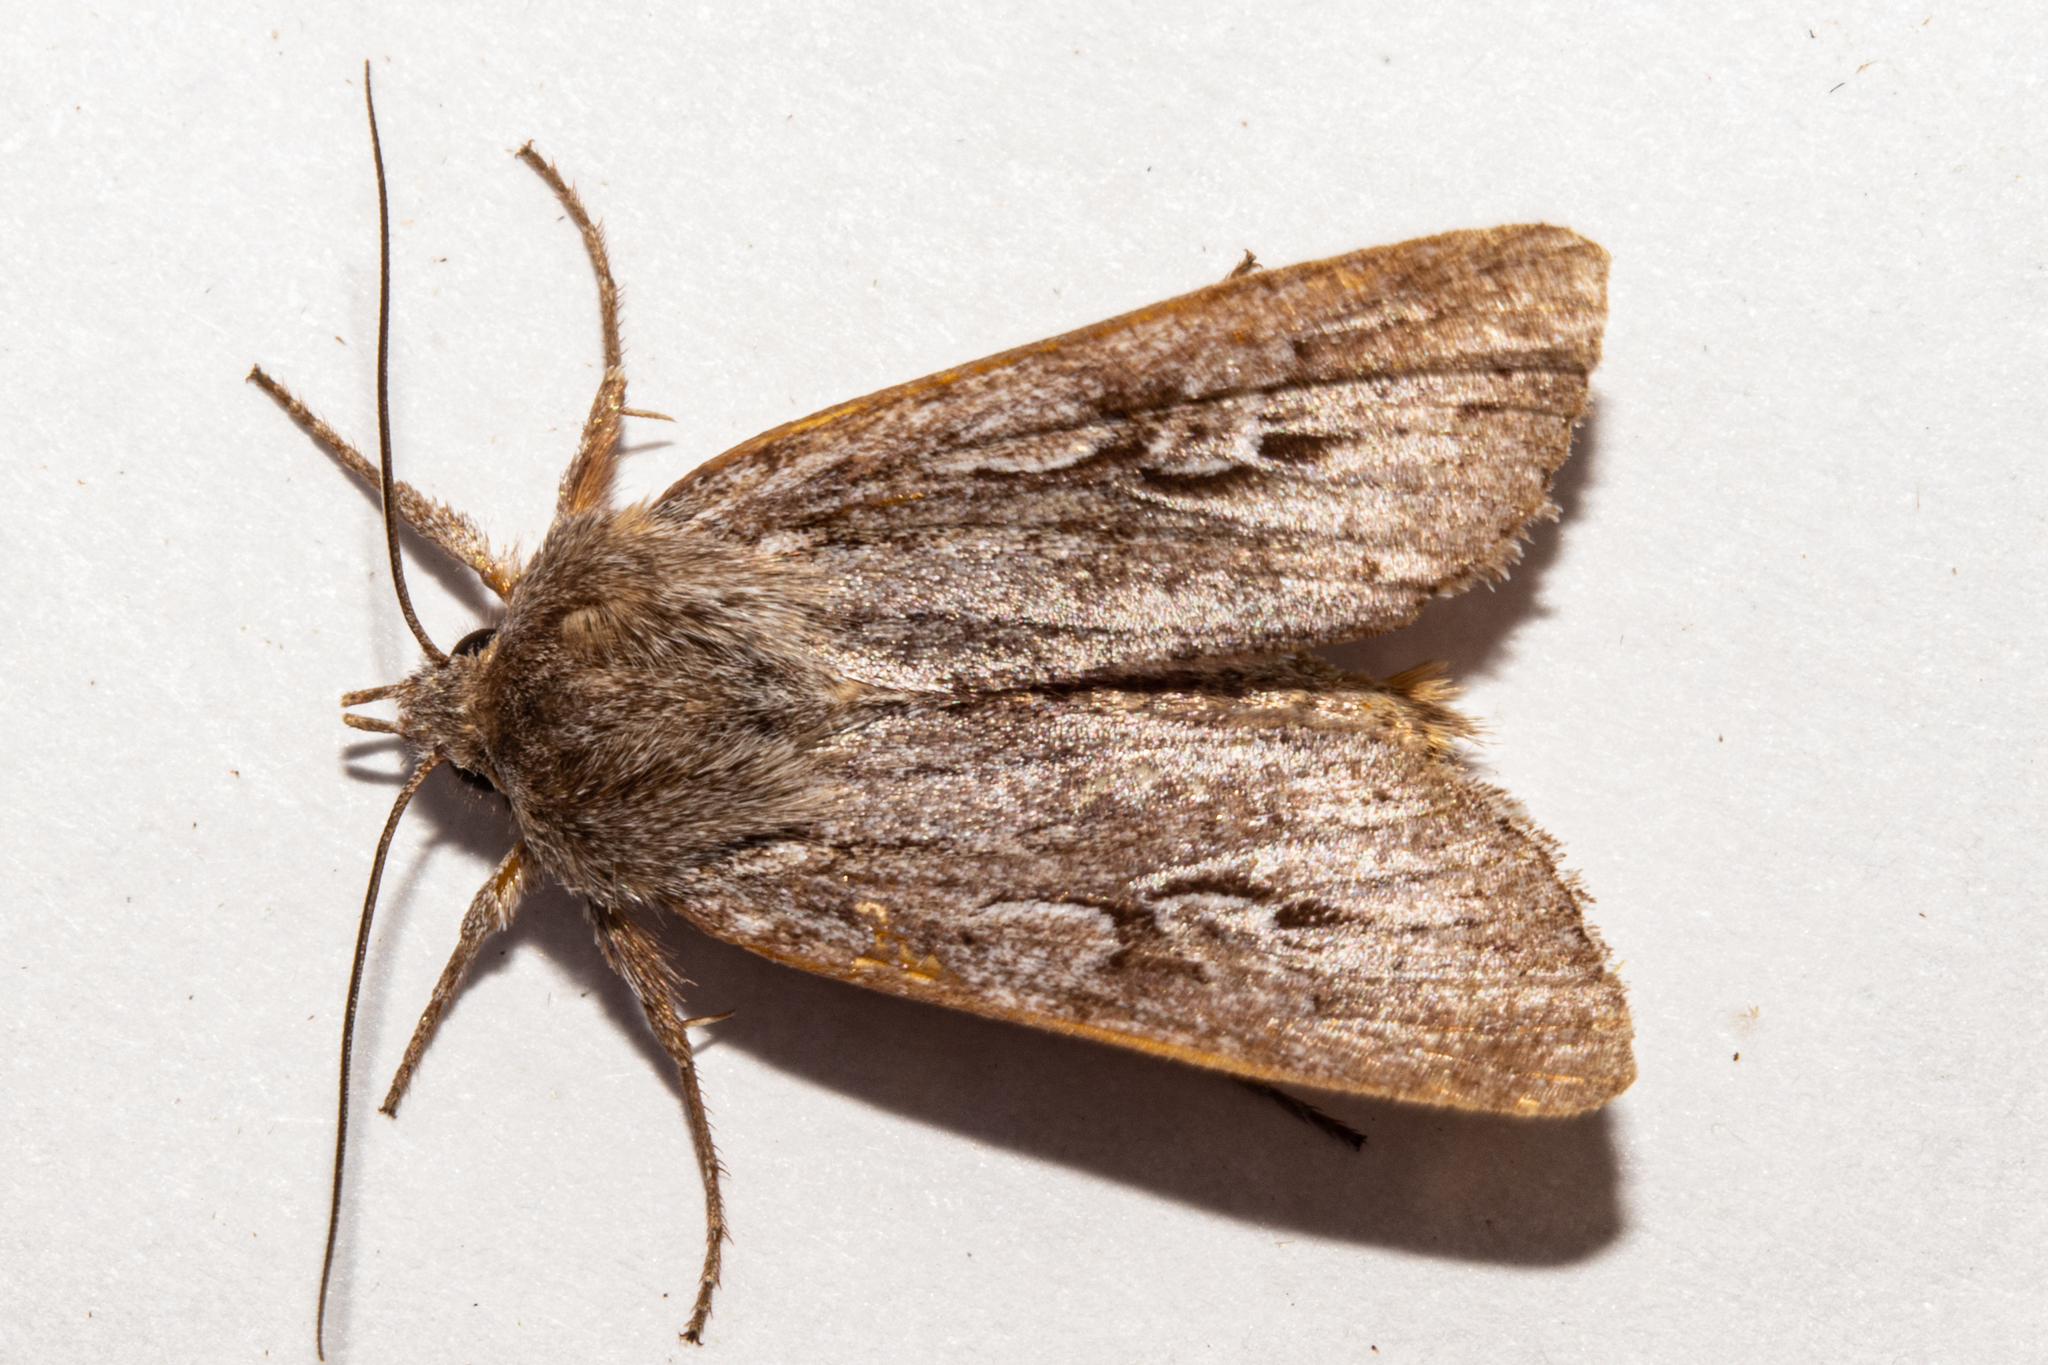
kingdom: Animalia
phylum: Arthropoda
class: Insecta
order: Lepidoptera
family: Noctuidae
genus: Physetica
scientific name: Physetica sequens
